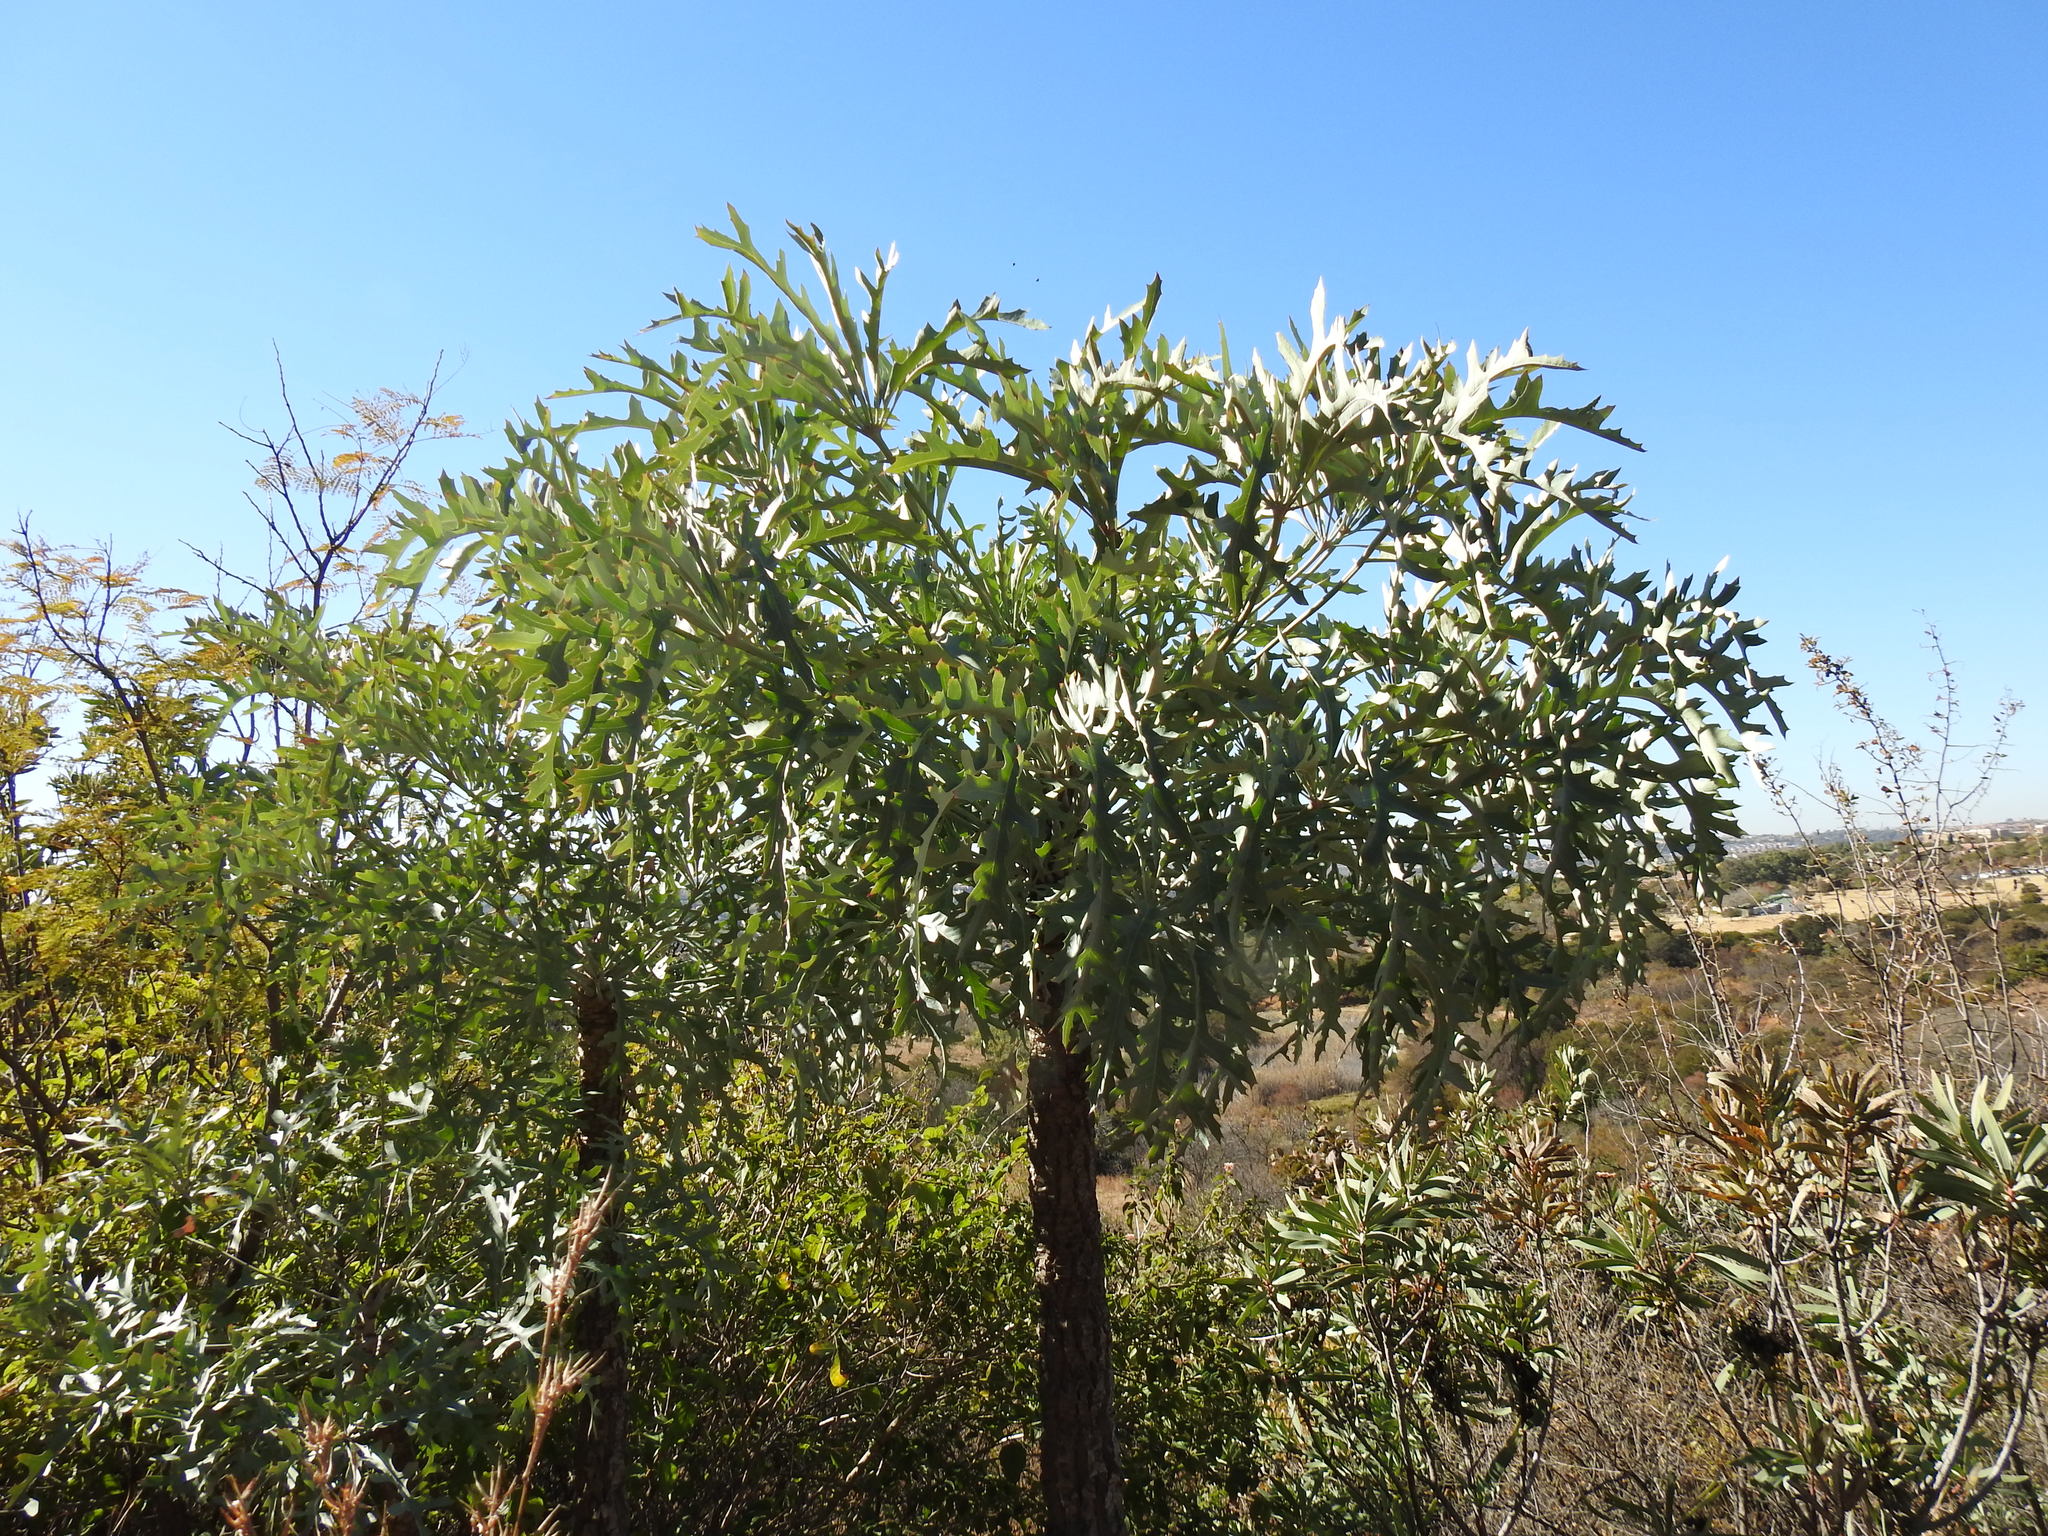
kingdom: Plantae
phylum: Tracheophyta
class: Magnoliopsida
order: Apiales
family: Araliaceae
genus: Cussonia
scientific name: Cussonia paniculata
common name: Cabbagetree
